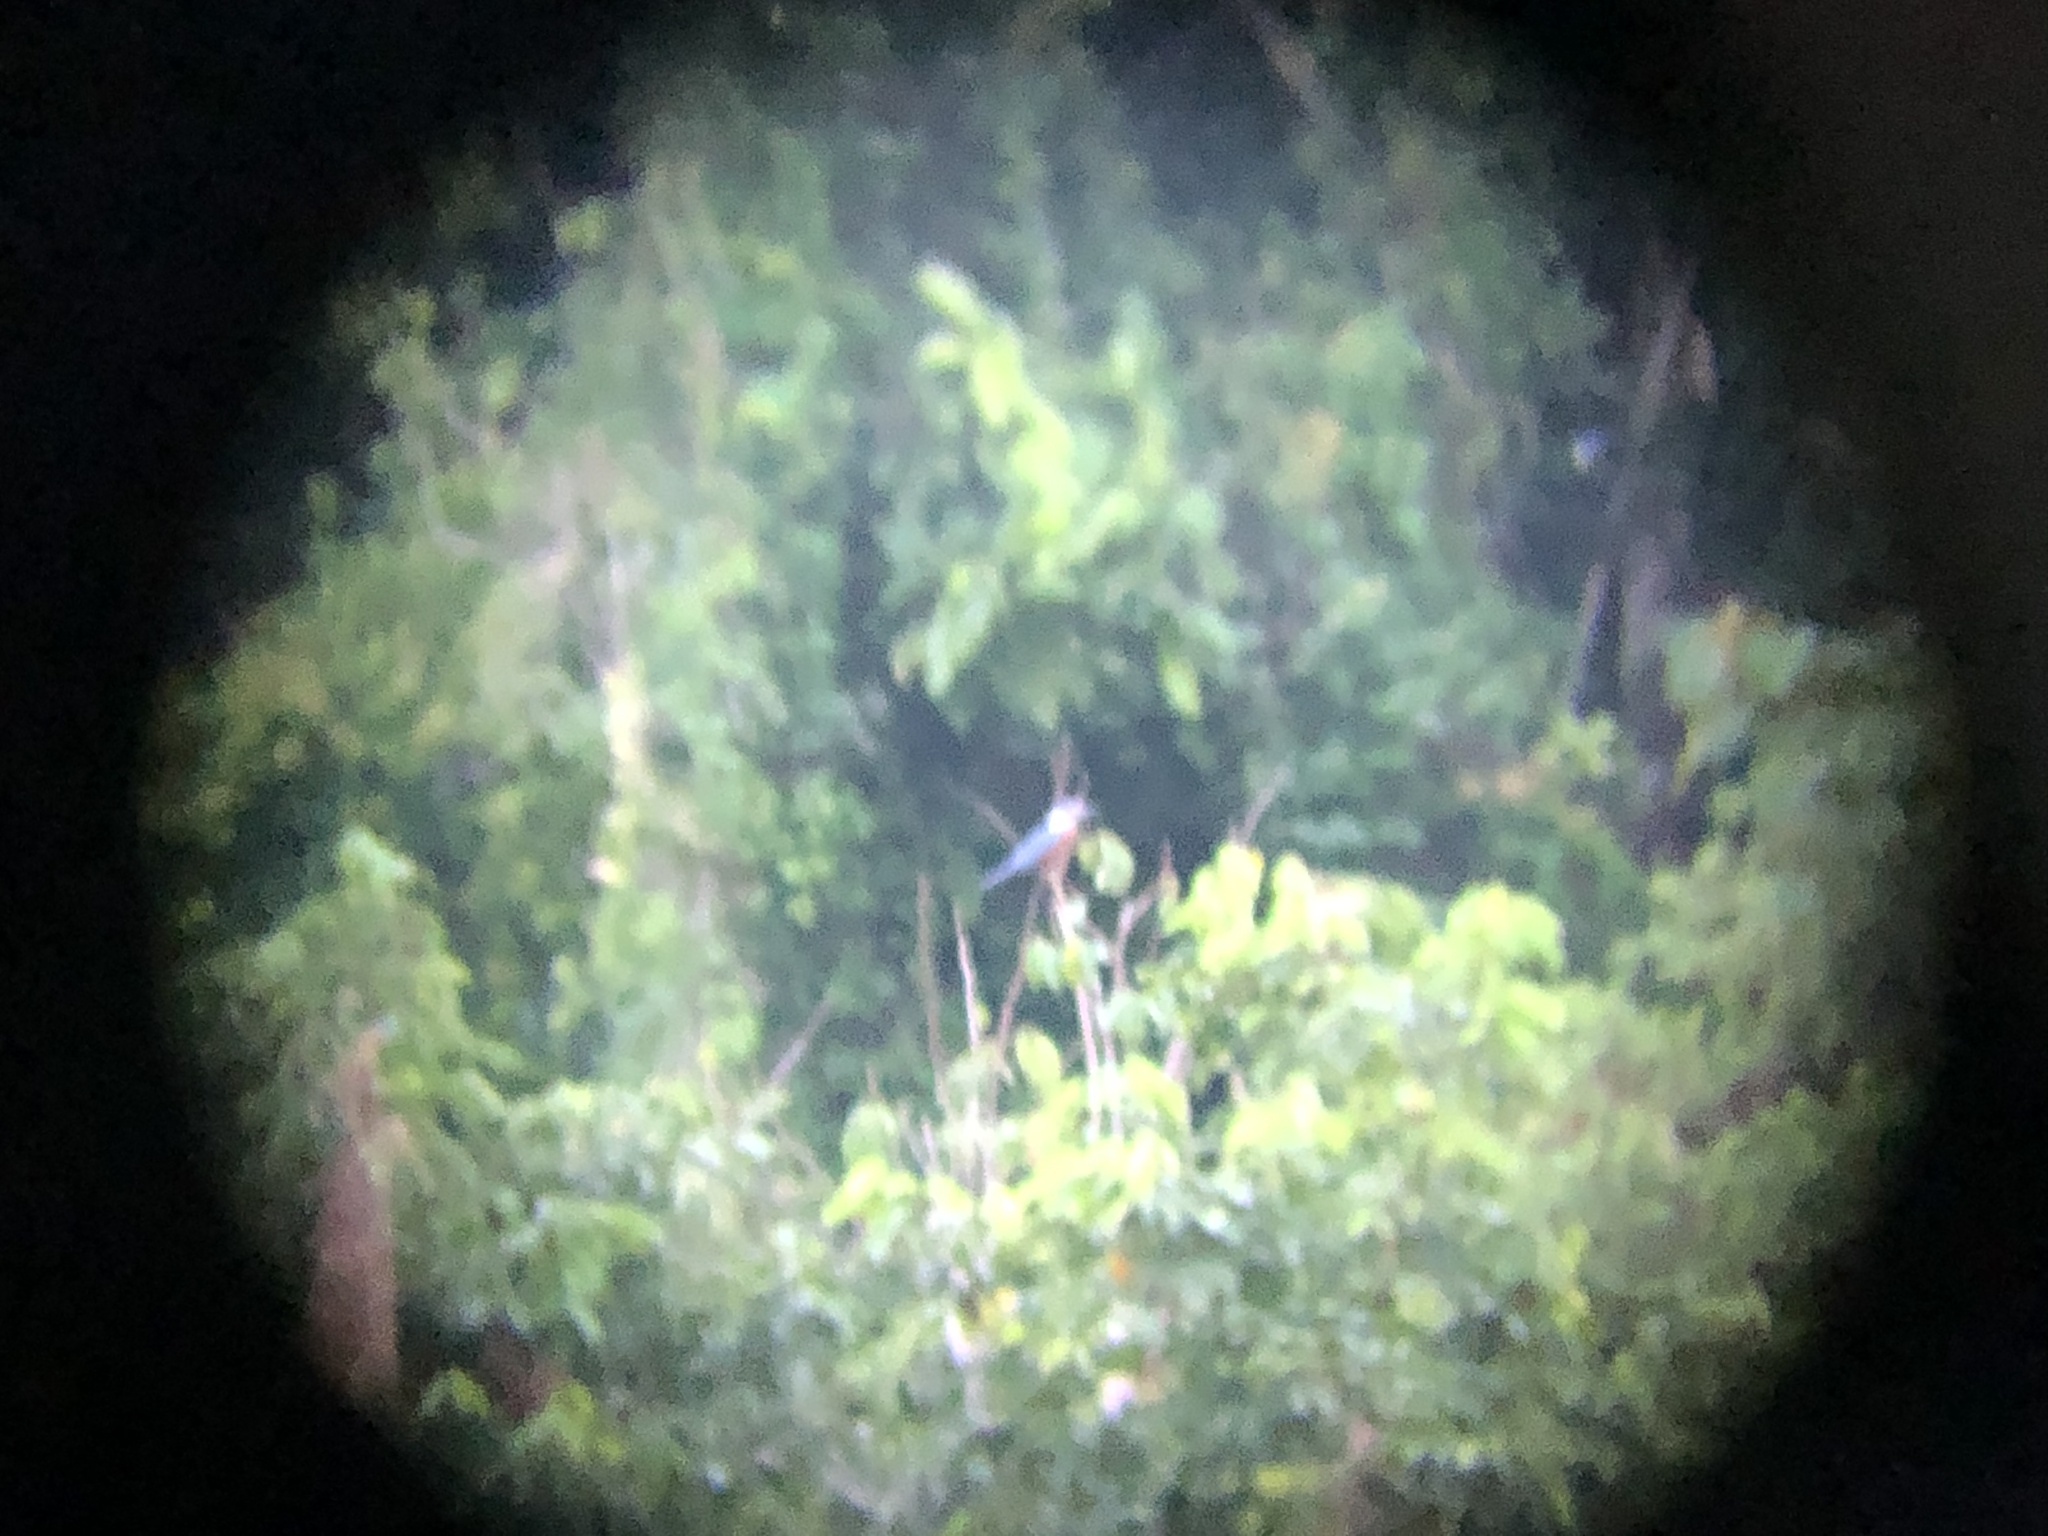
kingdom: Animalia
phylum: Chordata
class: Aves
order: Coraciiformes
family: Alcedinidae
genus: Megaceryle
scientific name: Megaceryle torquata
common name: Ringed kingfisher
